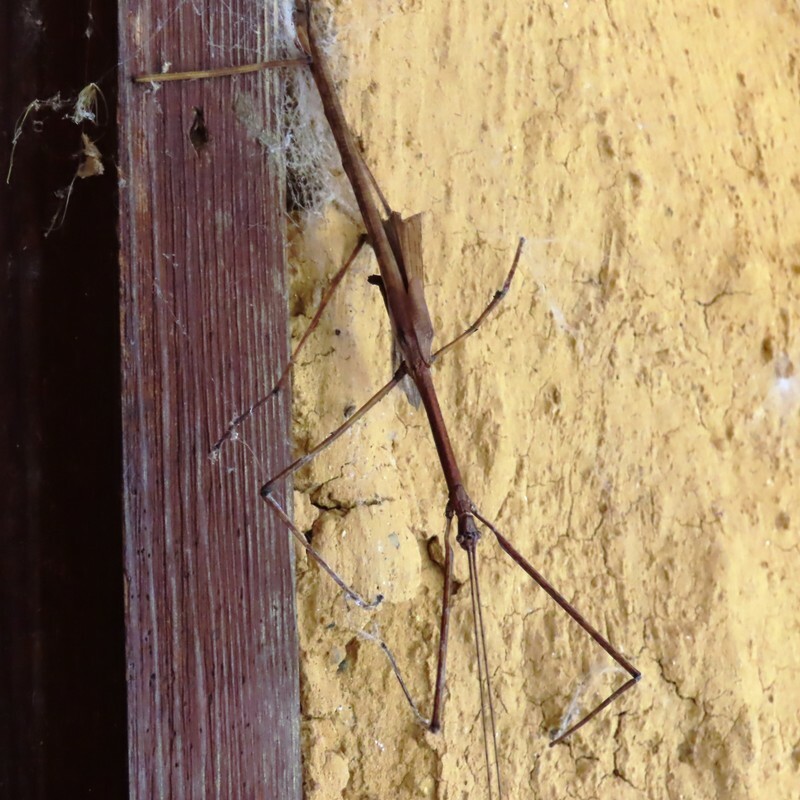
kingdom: Animalia
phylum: Arthropoda
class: Insecta
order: Phasmida
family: Phasmatidae
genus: Ctenomorpha
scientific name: Ctenomorpha marginipennis
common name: Margined-winged stick-insect
